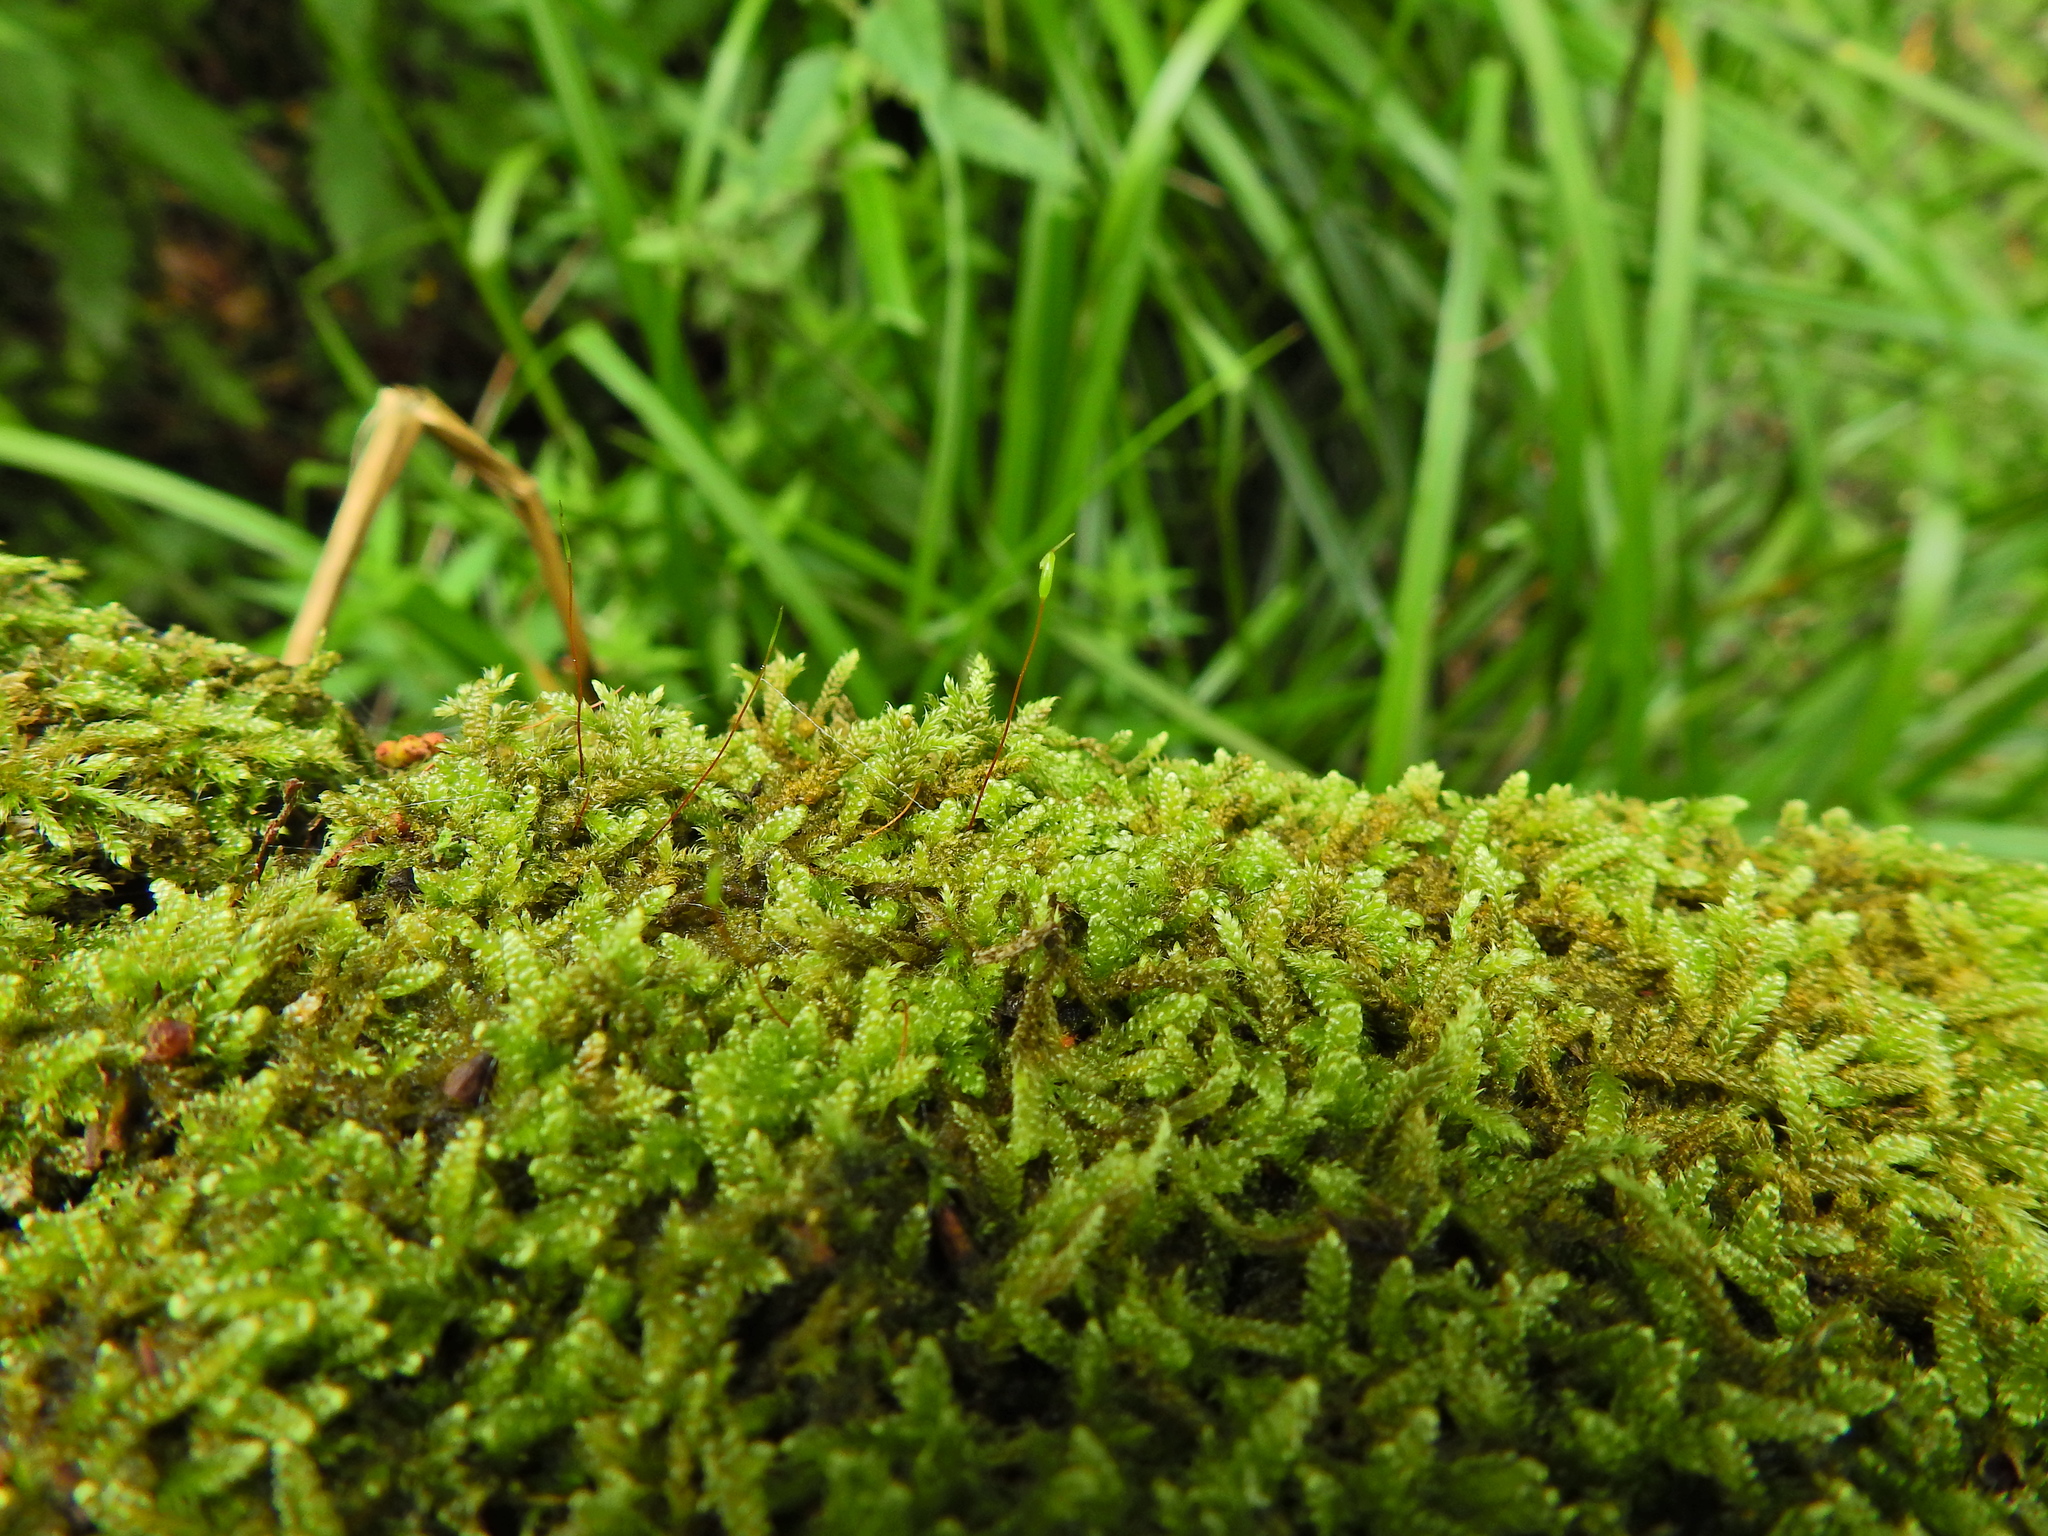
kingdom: Plantae
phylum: Bryophyta
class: Bryopsida
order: Hypnales
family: Hypnaceae
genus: Hypnum
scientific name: Hypnum cupressiforme
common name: Cypress-leaved plait-moss
